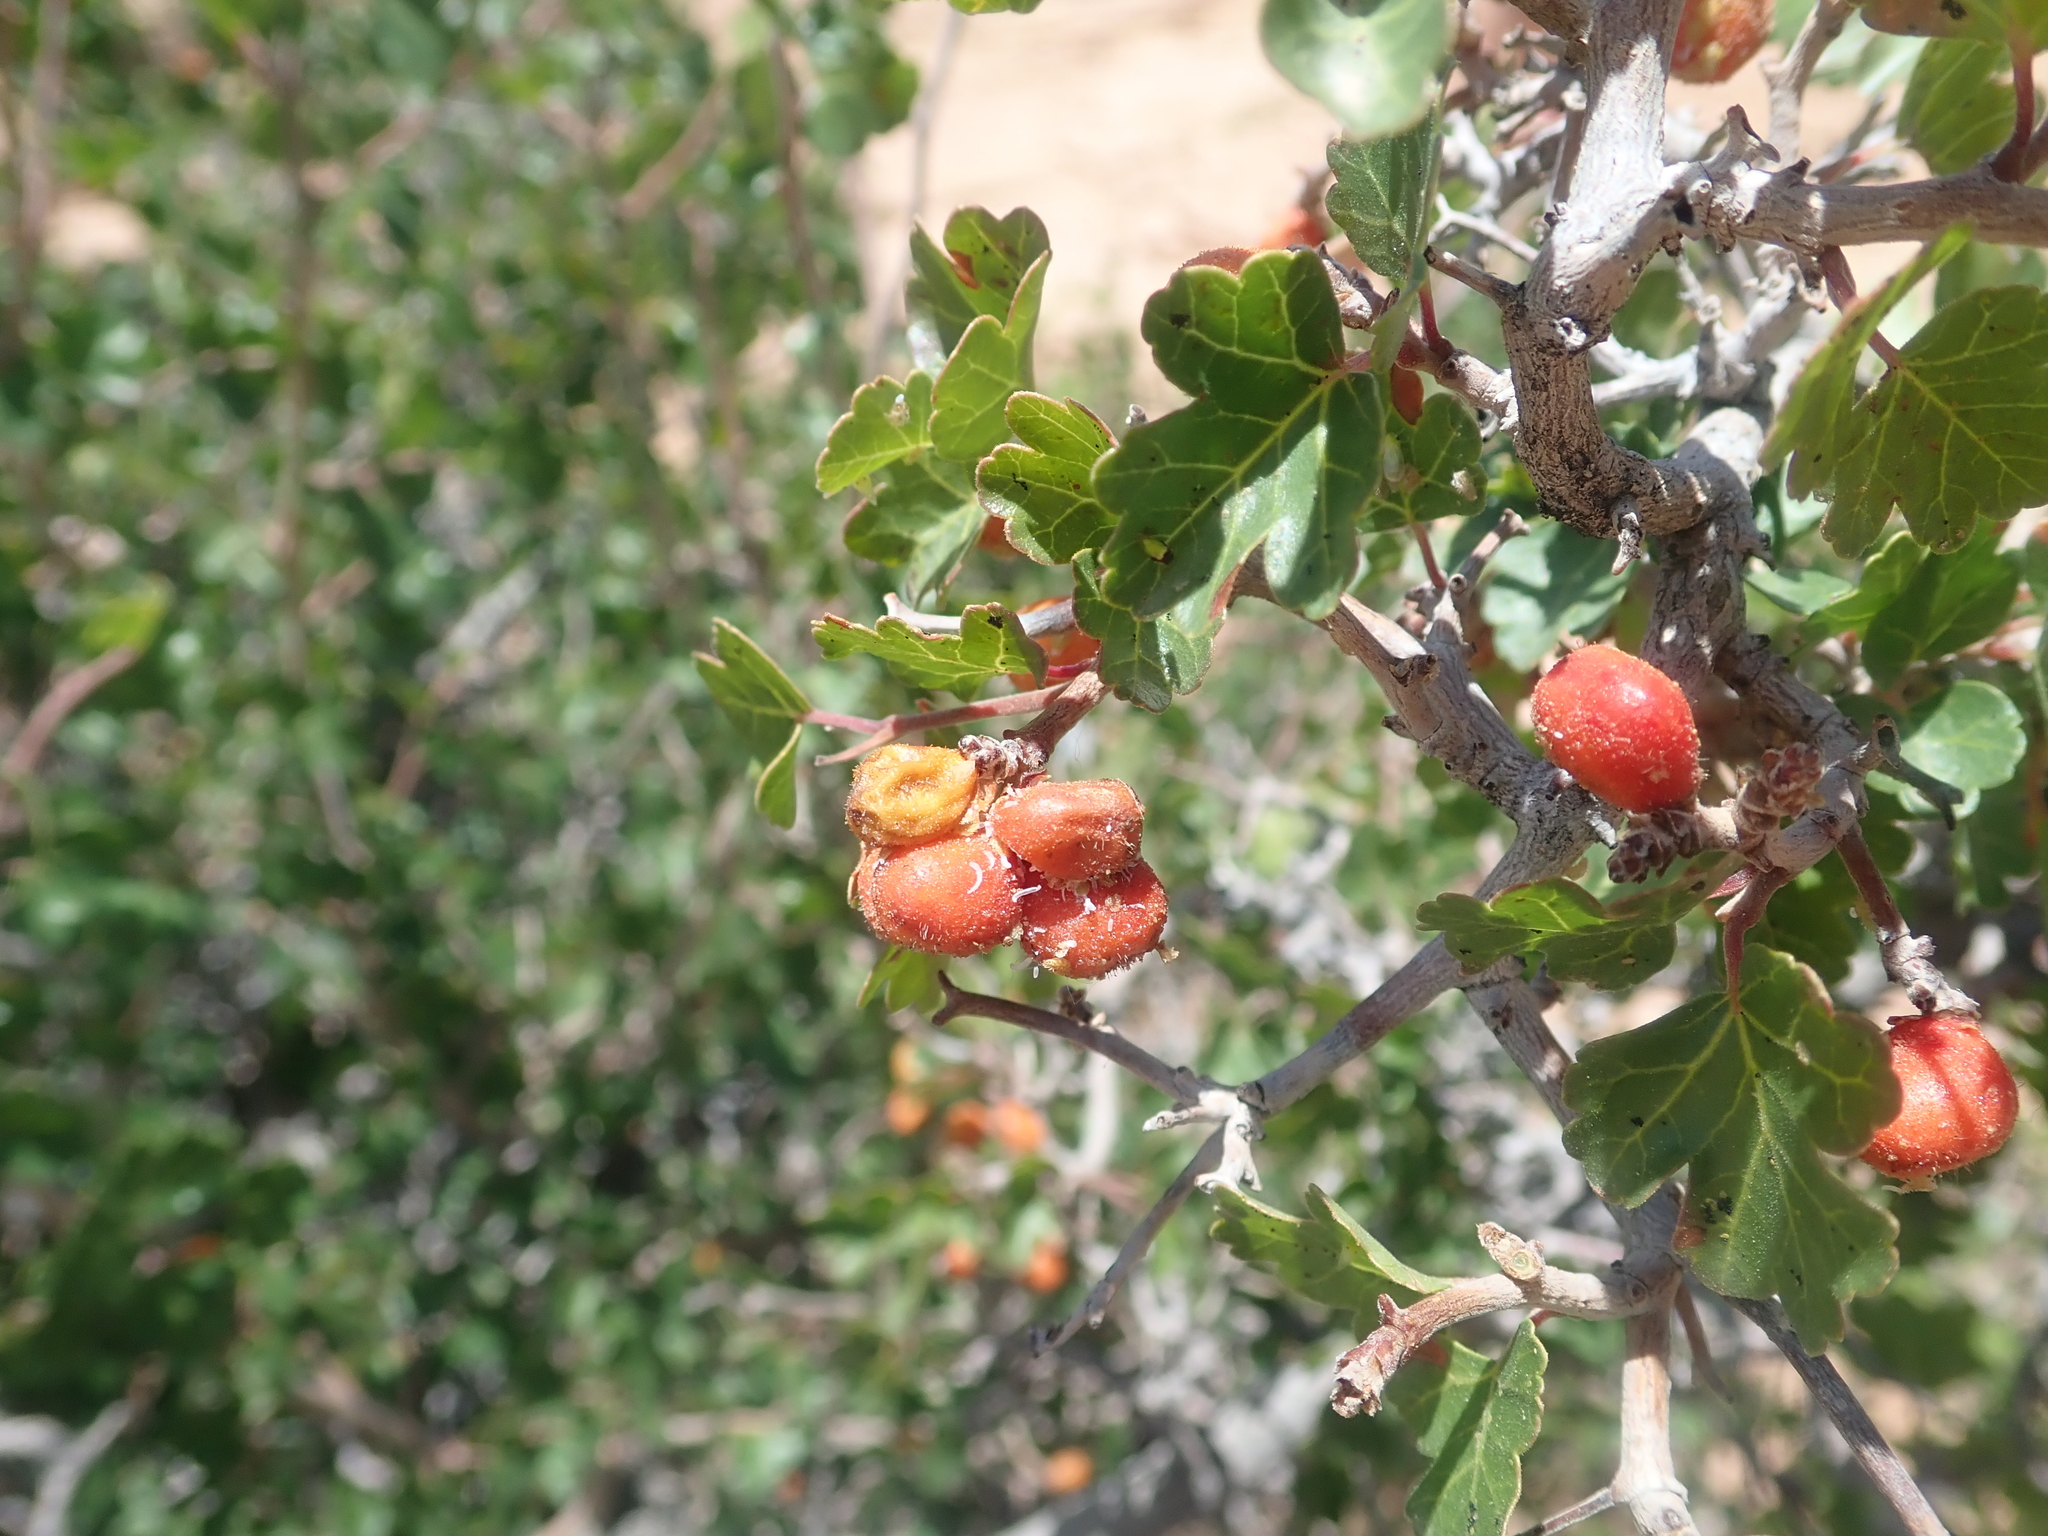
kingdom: Plantae
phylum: Tracheophyta
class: Magnoliopsida
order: Sapindales
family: Anacardiaceae
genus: Rhus
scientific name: Rhus aromatica
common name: Aromatic sumac
